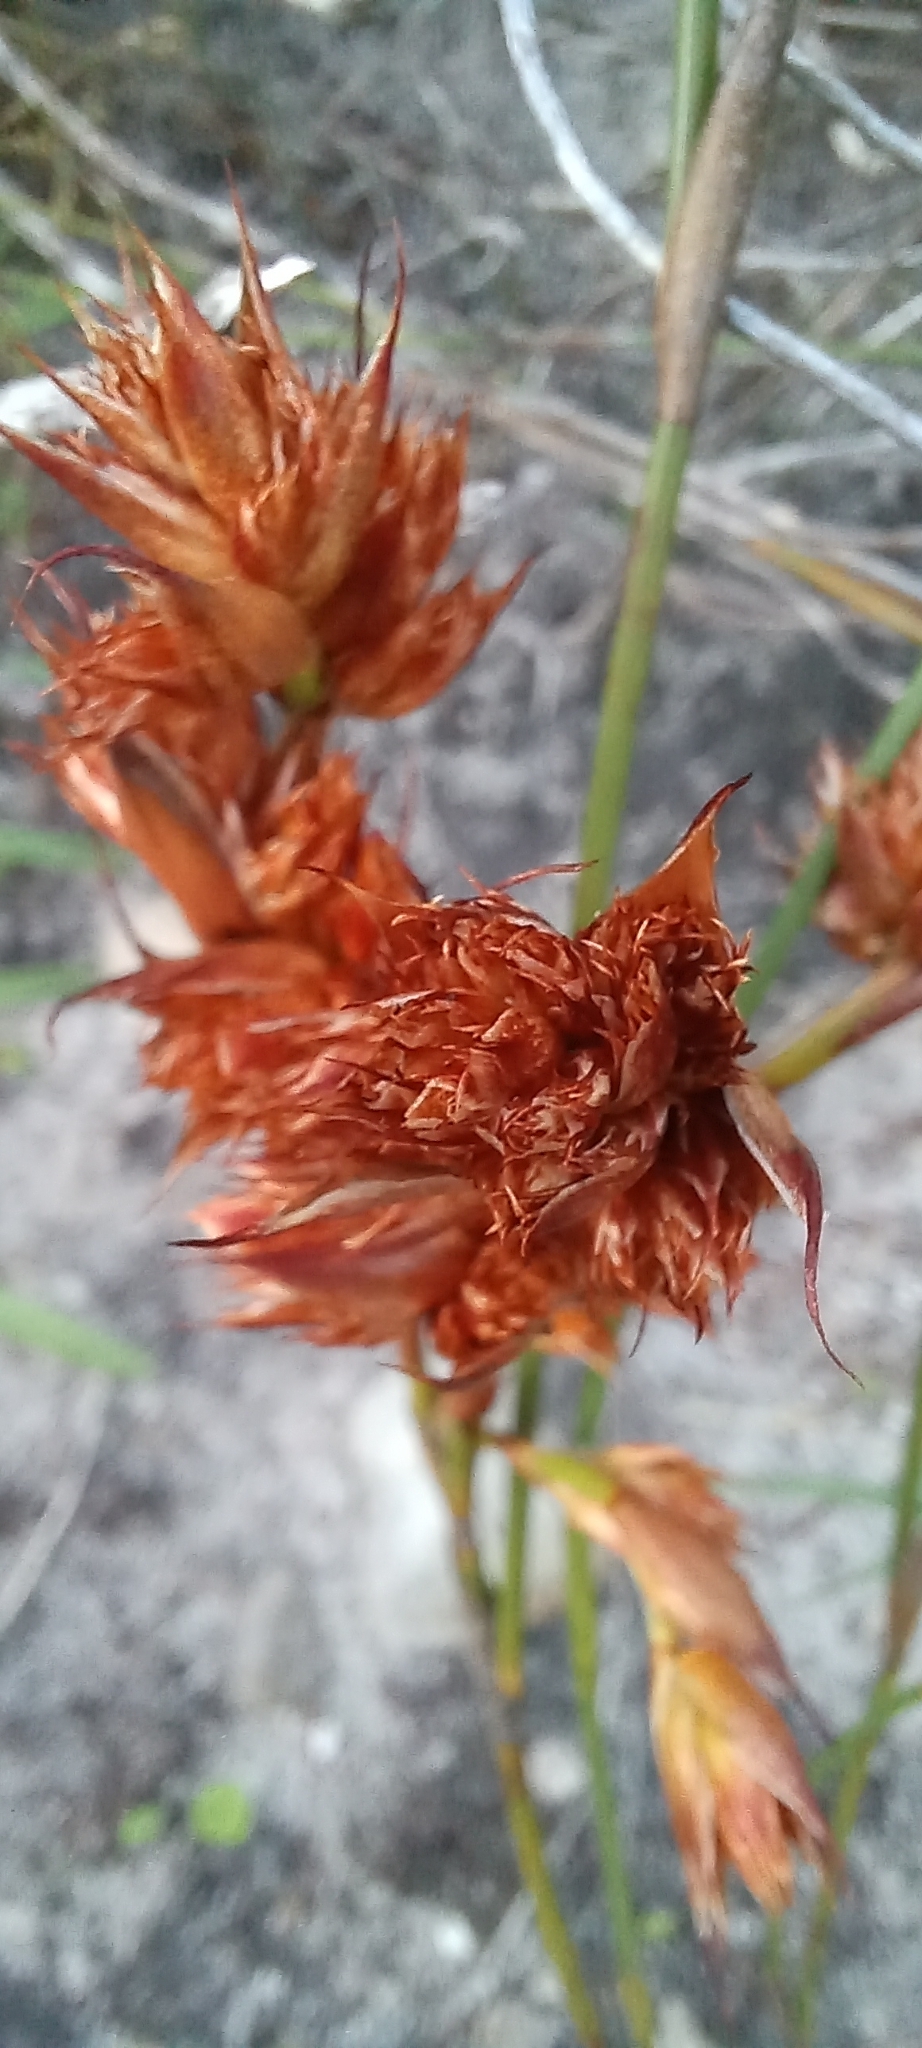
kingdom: Plantae
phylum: Tracheophyta
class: Liliopsida
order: Poales
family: Restionaceae
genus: Willdenowia
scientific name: Willdenowia glomerata
